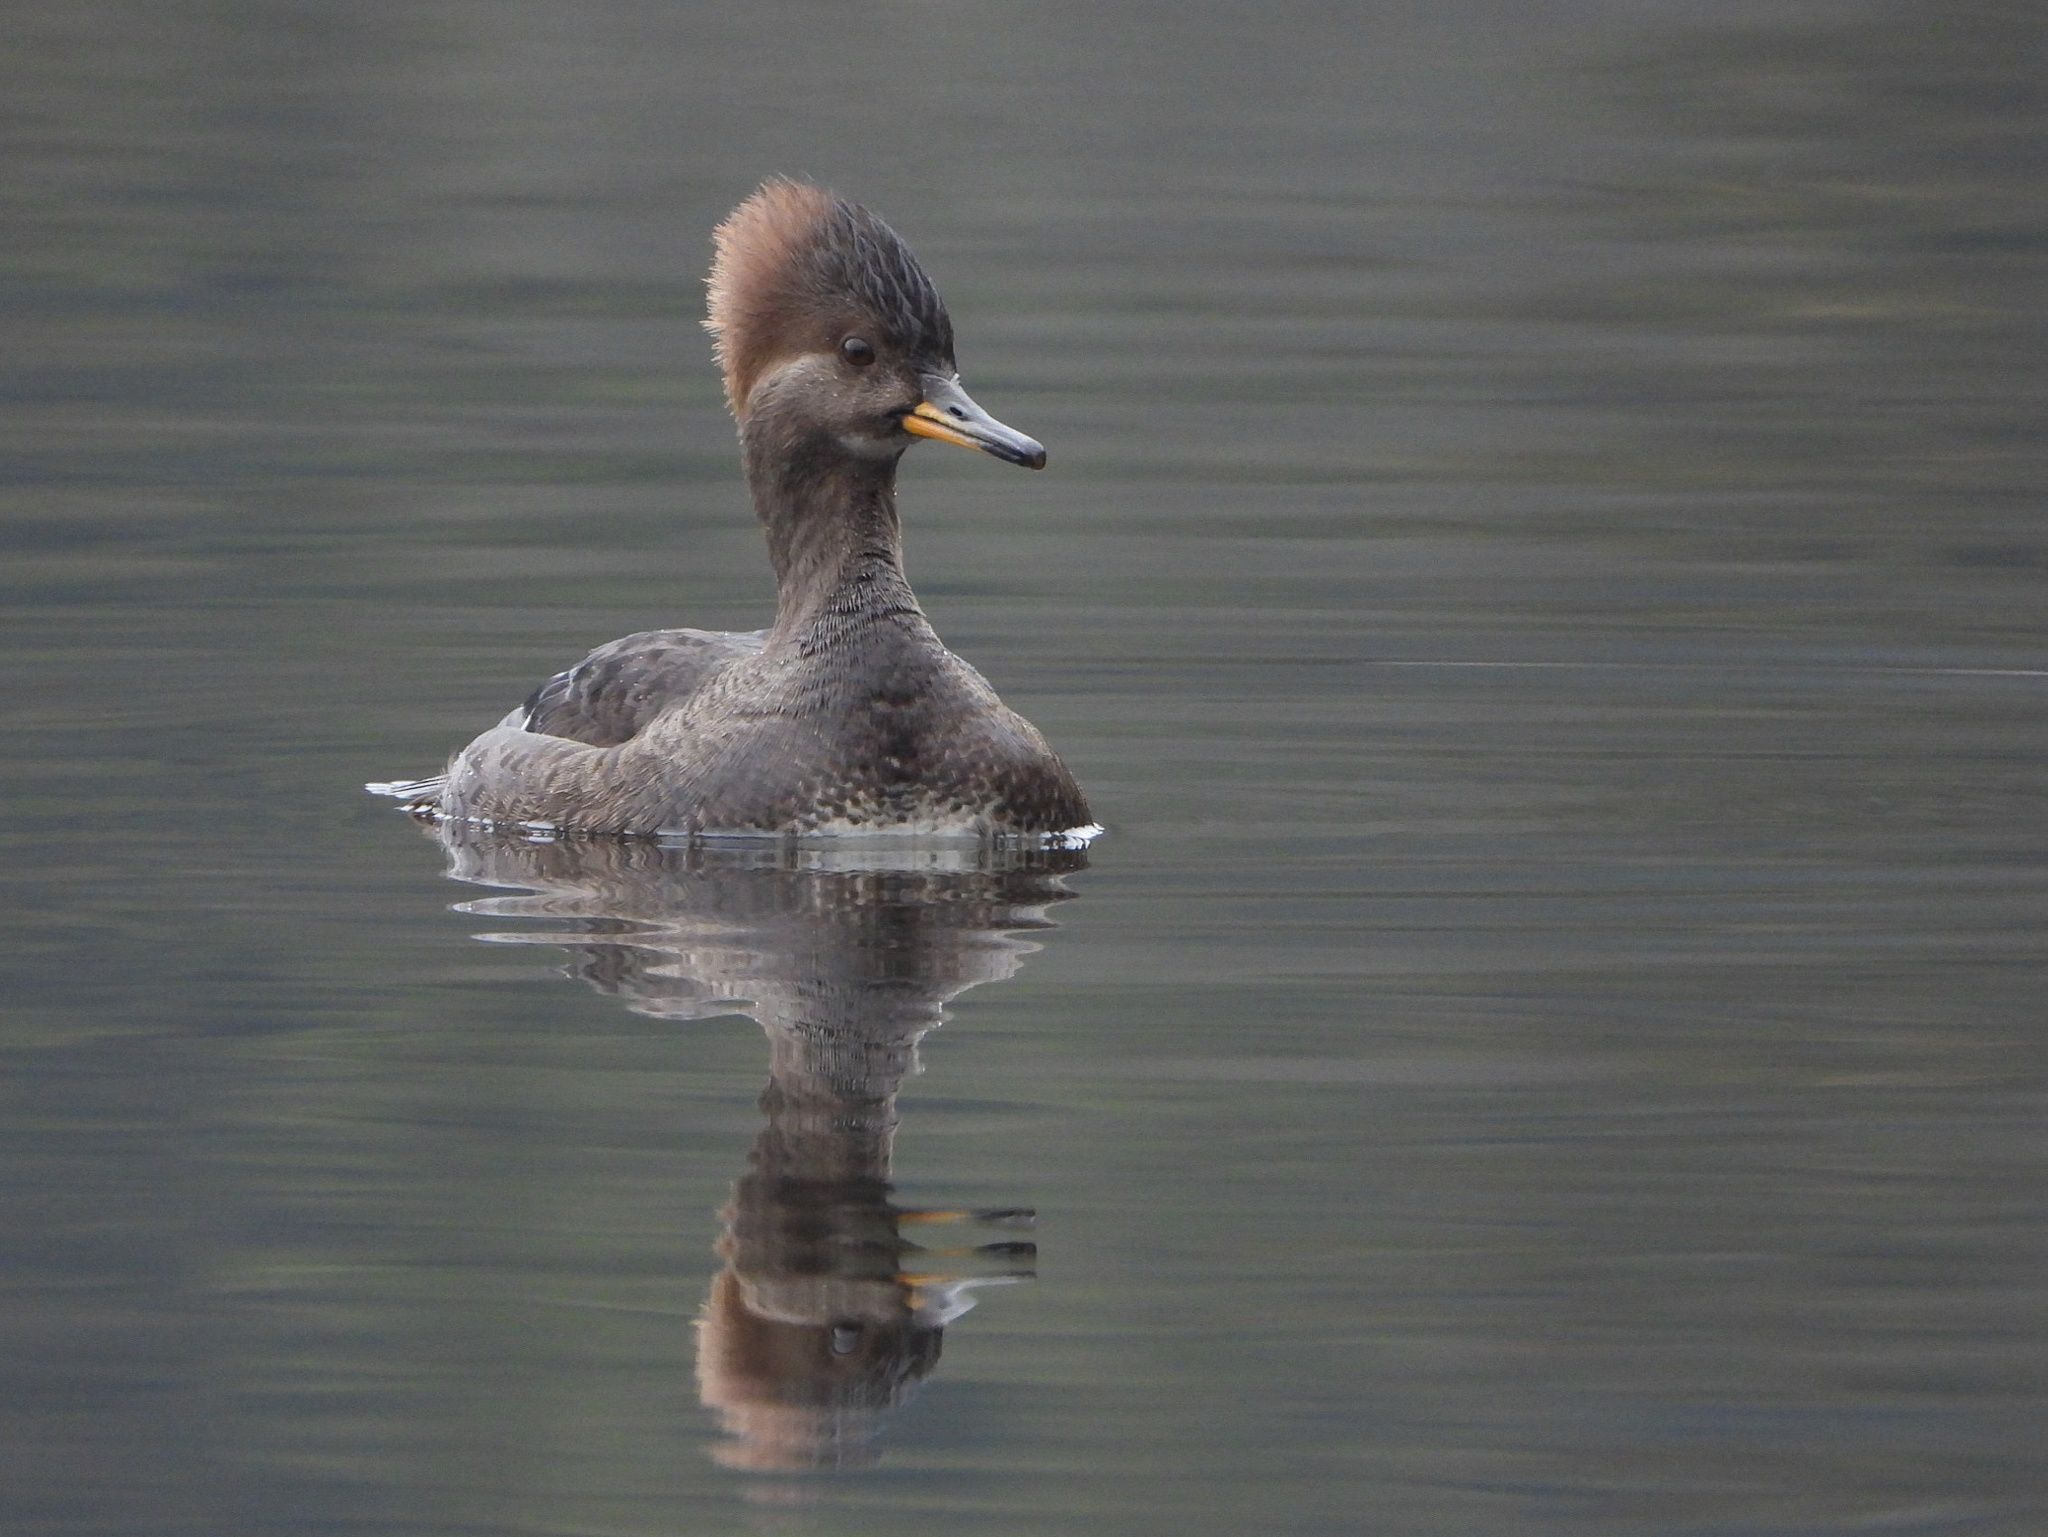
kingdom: Animalia
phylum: Chordata
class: Aves
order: Anseriformes
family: Anatidae
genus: Lophodytes
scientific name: Lophodytes cucullatus
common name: Hooded merganser
